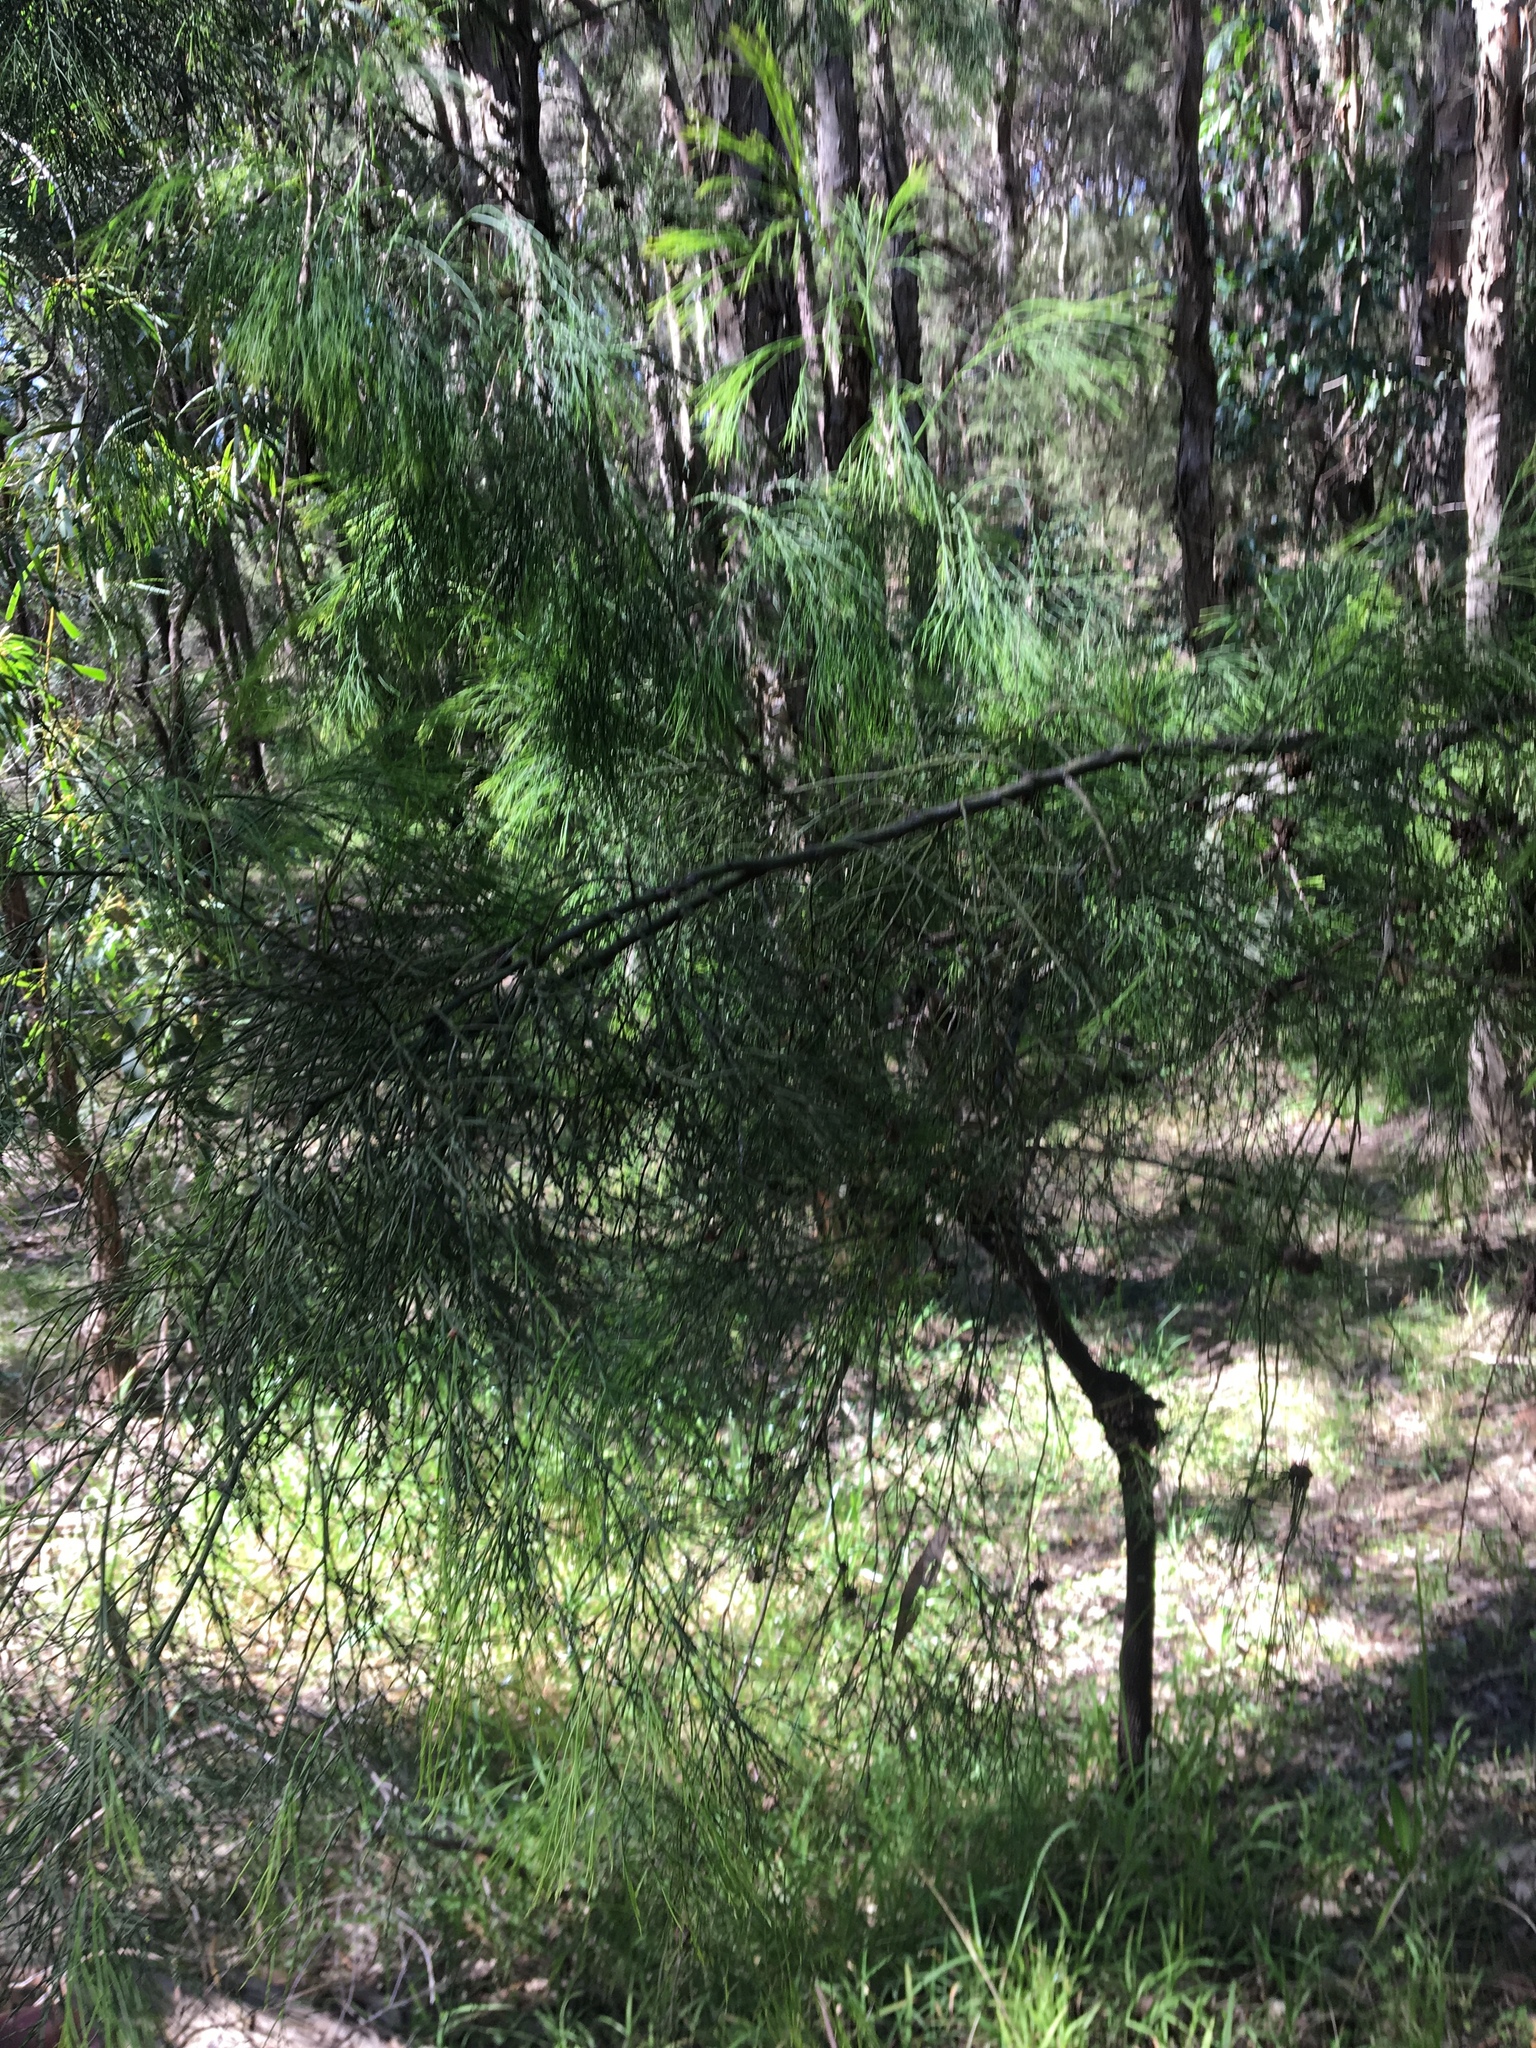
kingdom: Plantae
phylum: Tracheophyta
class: Magnoliopsida
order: Santalales
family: Santalaceae
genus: Exocarpos
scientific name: Exocarpos cupressiformis
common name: Cherry ballart
